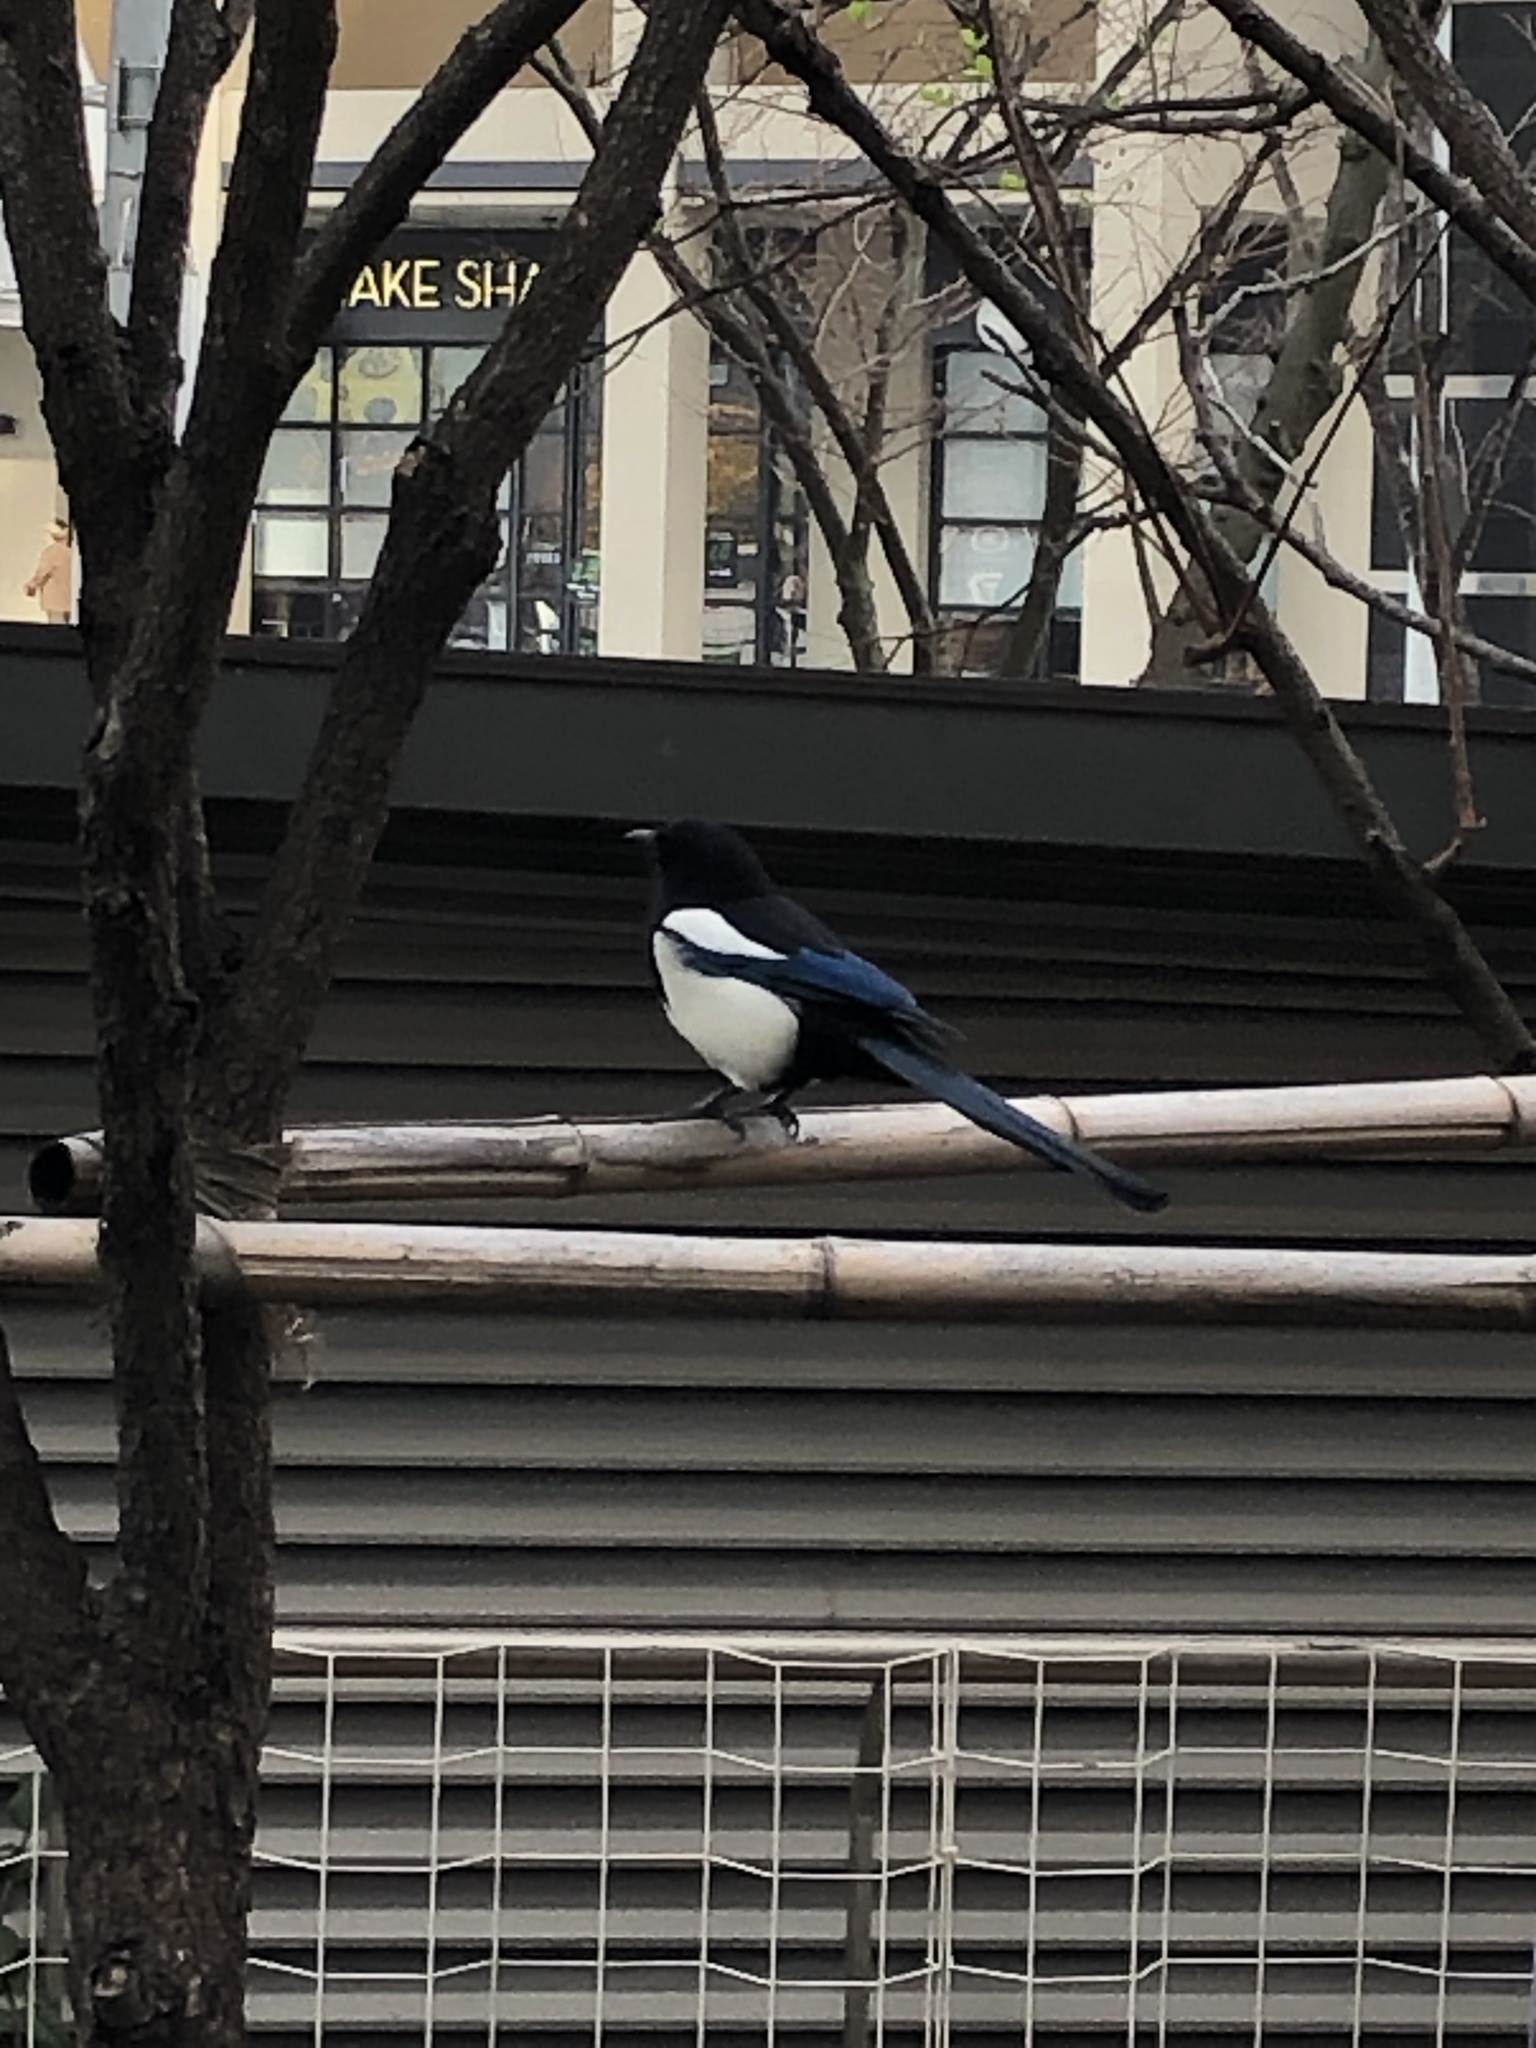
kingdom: Animalia
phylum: Chordata
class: Aves
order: Passeriformes
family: Corvidae
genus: Pica
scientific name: Pica serica
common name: Oriental magpie
